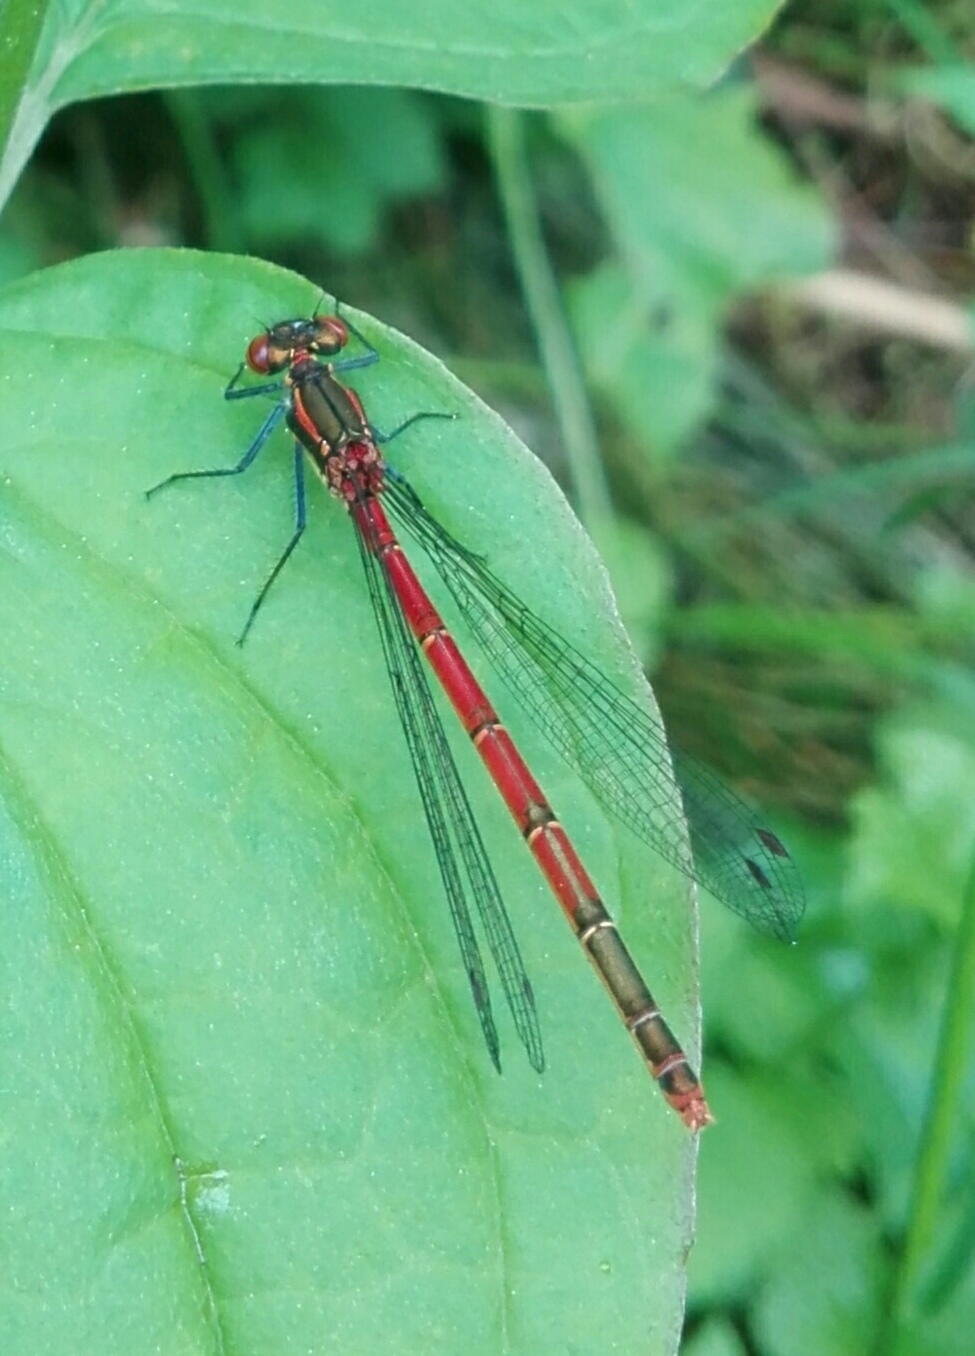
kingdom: Animalia
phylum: Arthropoda
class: Insecta
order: Odonata
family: Coenagrionidae
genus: Pyrrhosoma
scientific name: Pyrrhosoma nymphula
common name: Large red damsel
